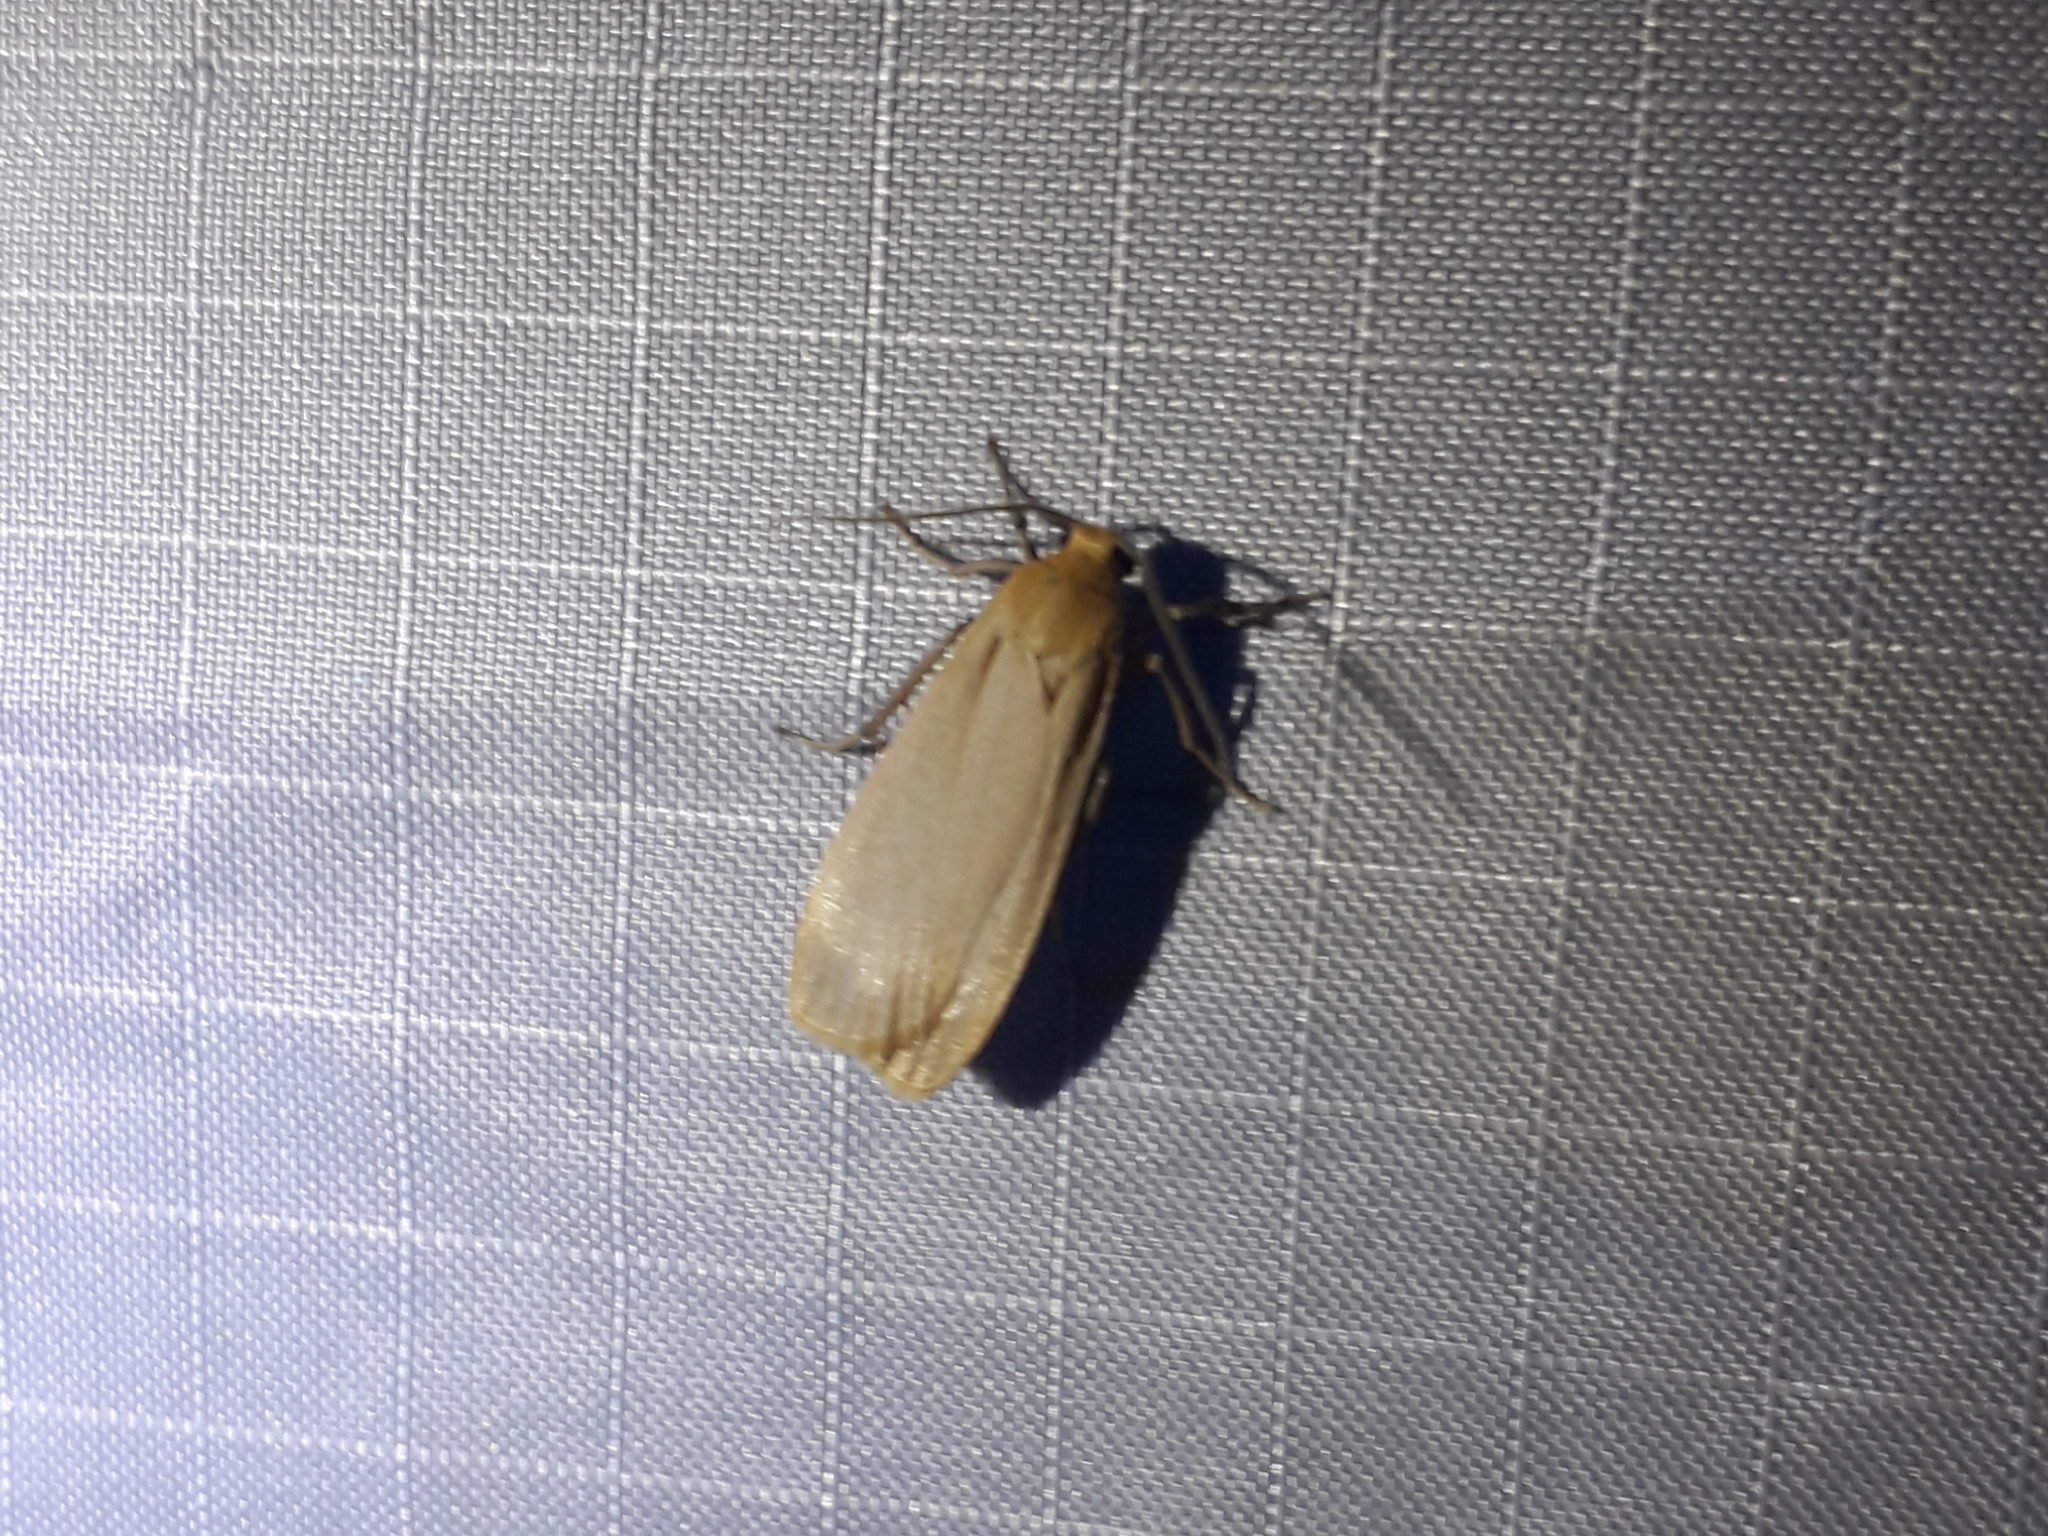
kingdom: Animalia
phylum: Arthropoda
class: Insecta
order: Lepidoptera
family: Erebidae
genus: Katha
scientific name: Katha depressa
